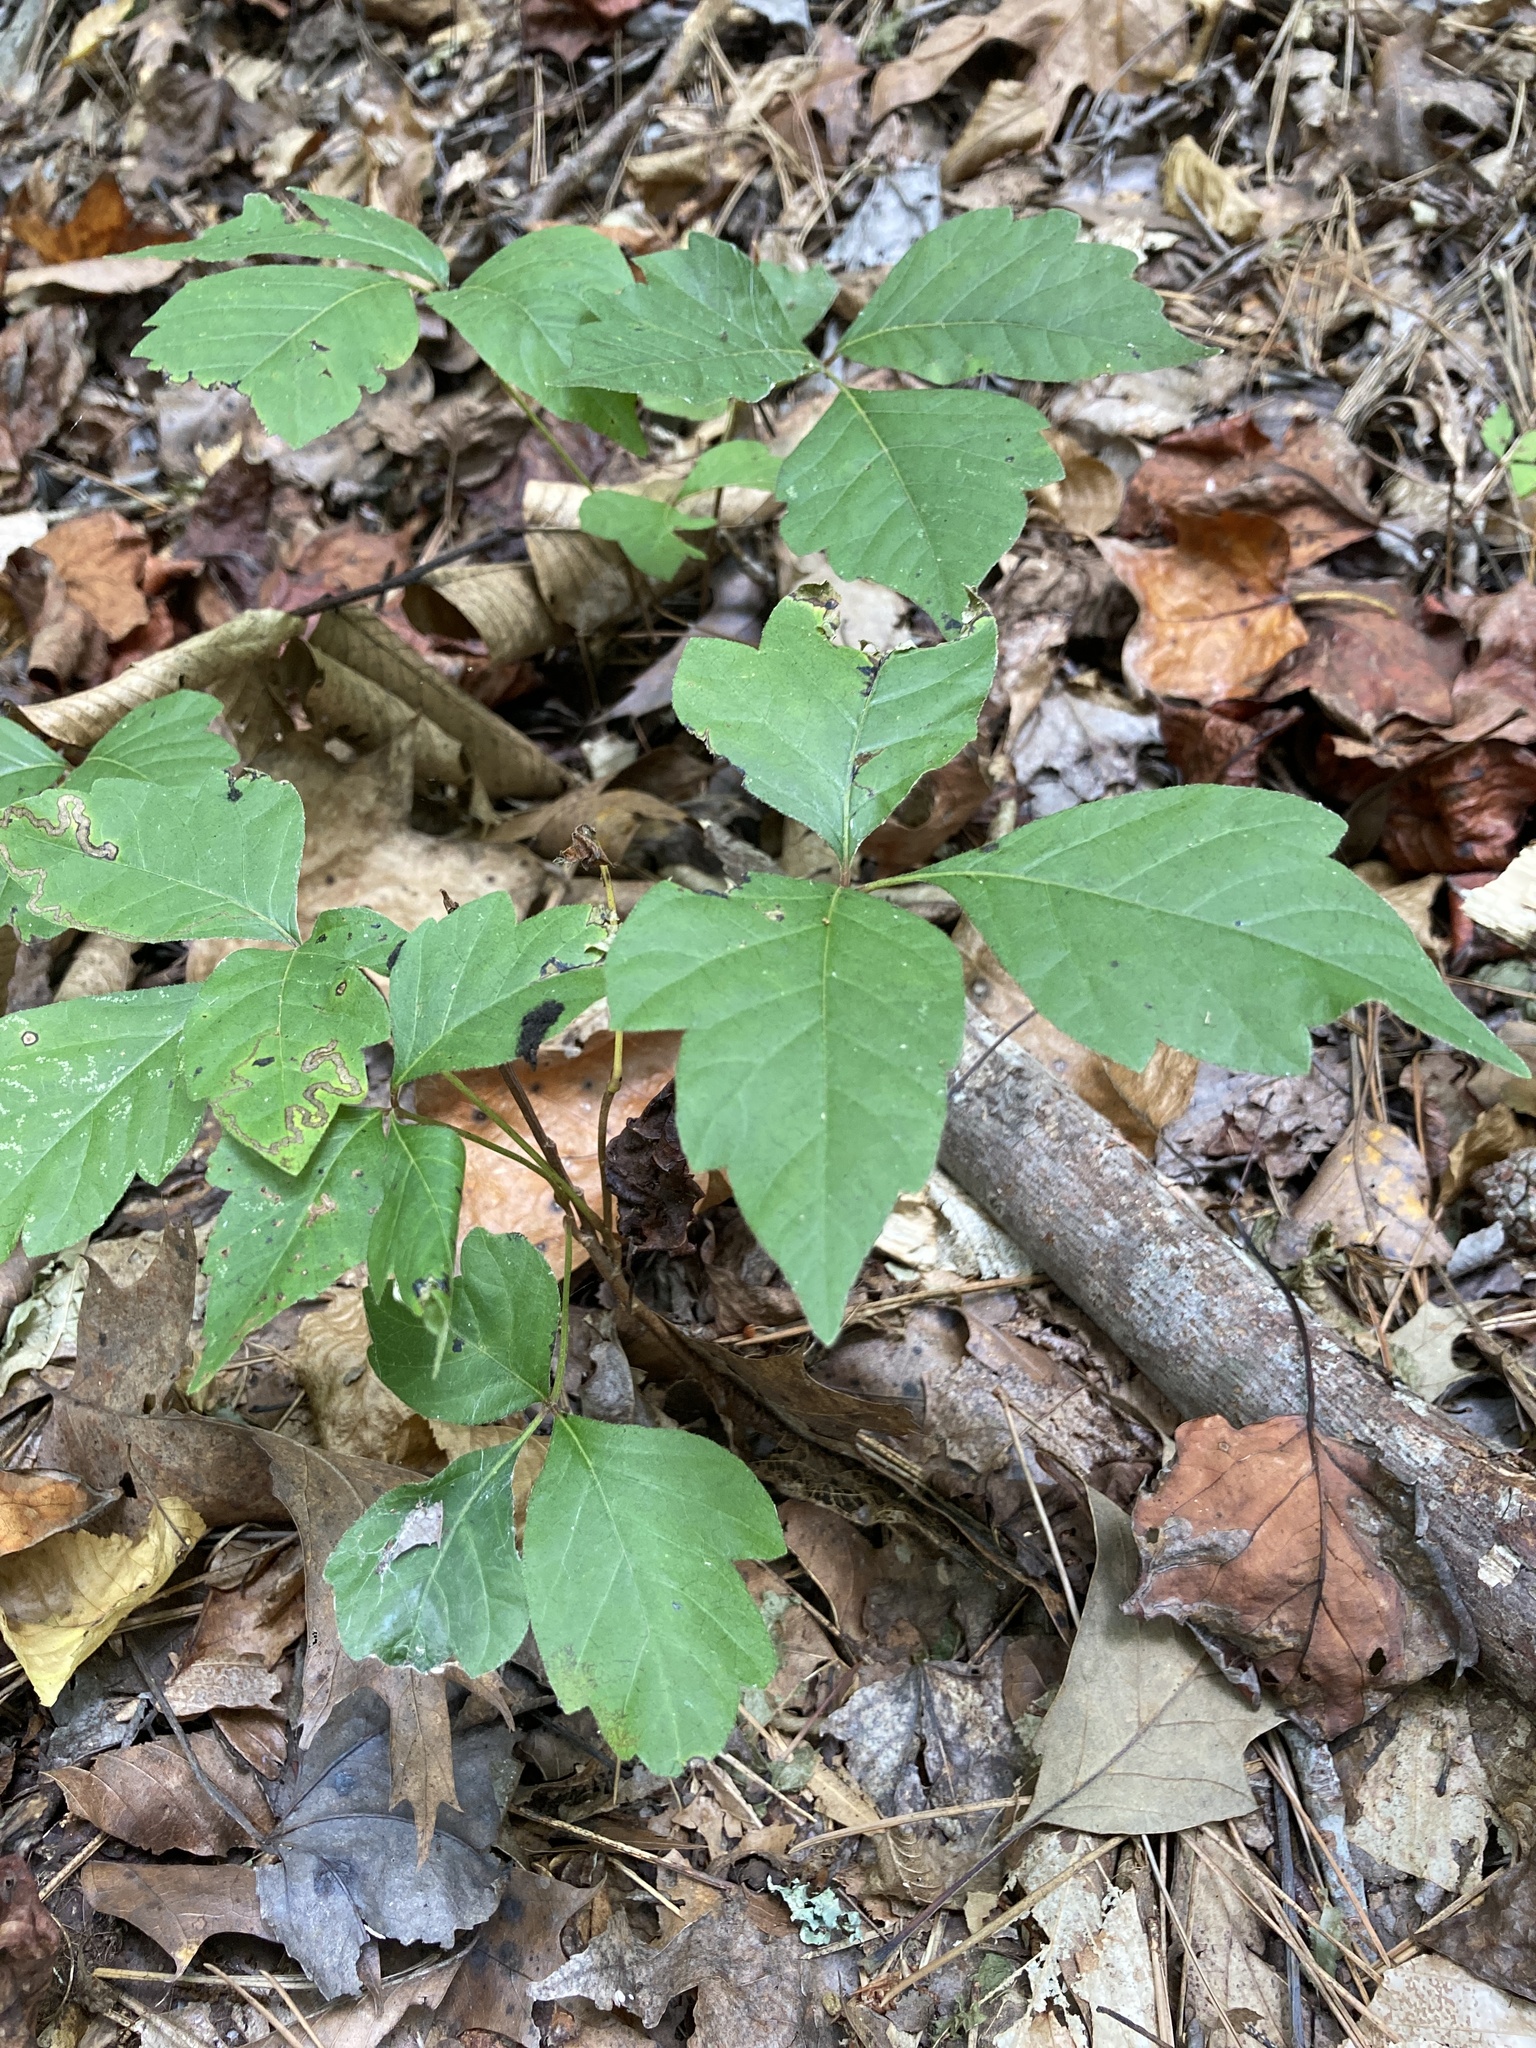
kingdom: Plantae
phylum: Tracheophyta
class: Magnoliopsida
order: Sapindales
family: Anacardiaceae
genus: Toxicodendron
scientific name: Toxicodendron radicans
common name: Poison ivy
